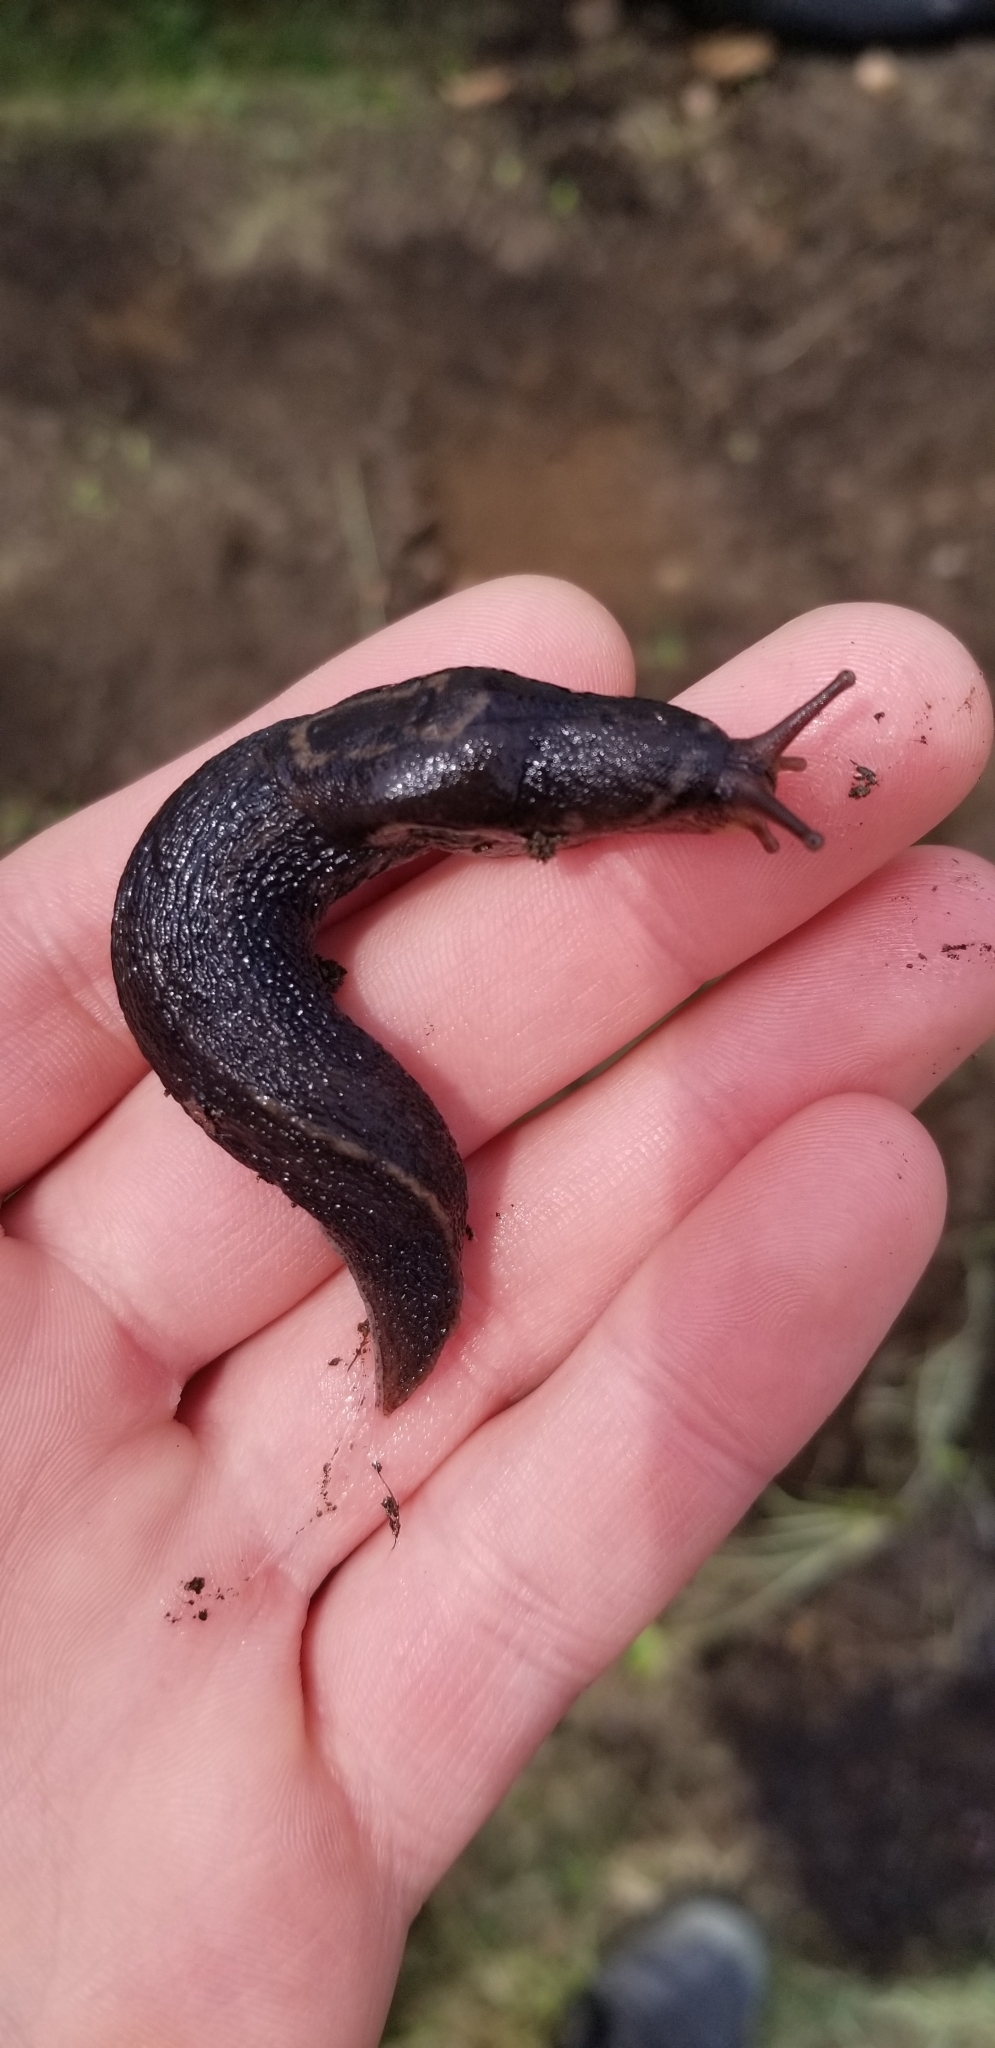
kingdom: Animalia
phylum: Mollusca
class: Gastropoda
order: Stylommatophora
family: Limacidae
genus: Limax
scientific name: Limax maximus
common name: Great grey slug
